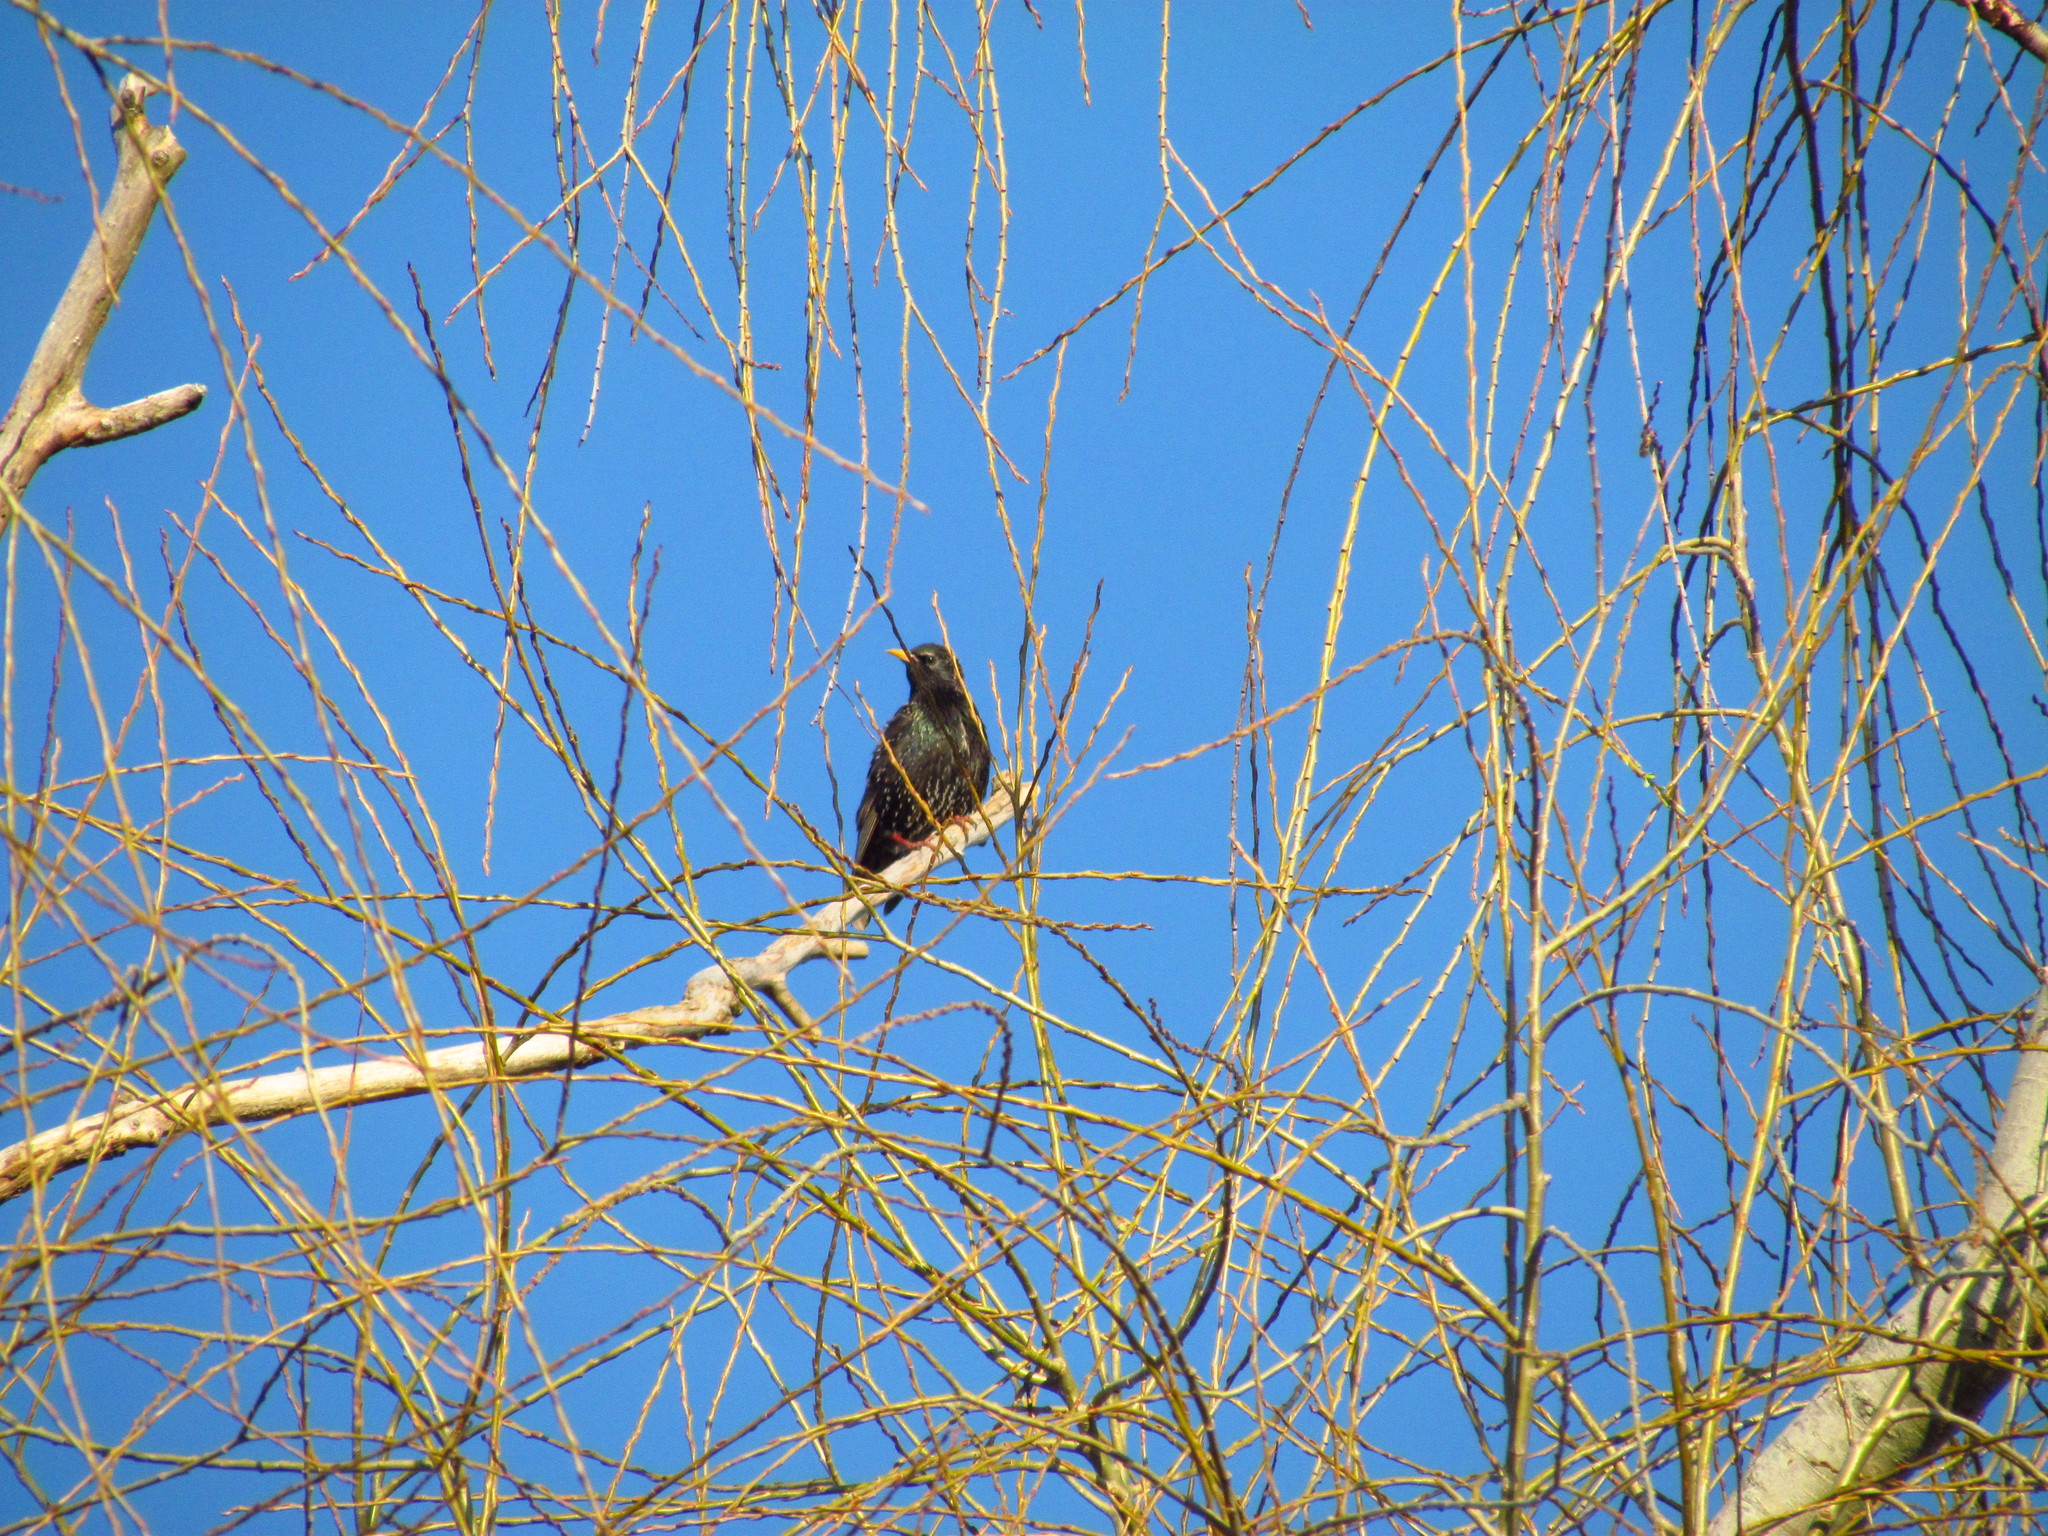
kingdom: Animalia
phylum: Chordata
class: Aves
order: Passeriformes
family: Sturnidae
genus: Sturnus
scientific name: Sturnus vulgaris
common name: Common starling
